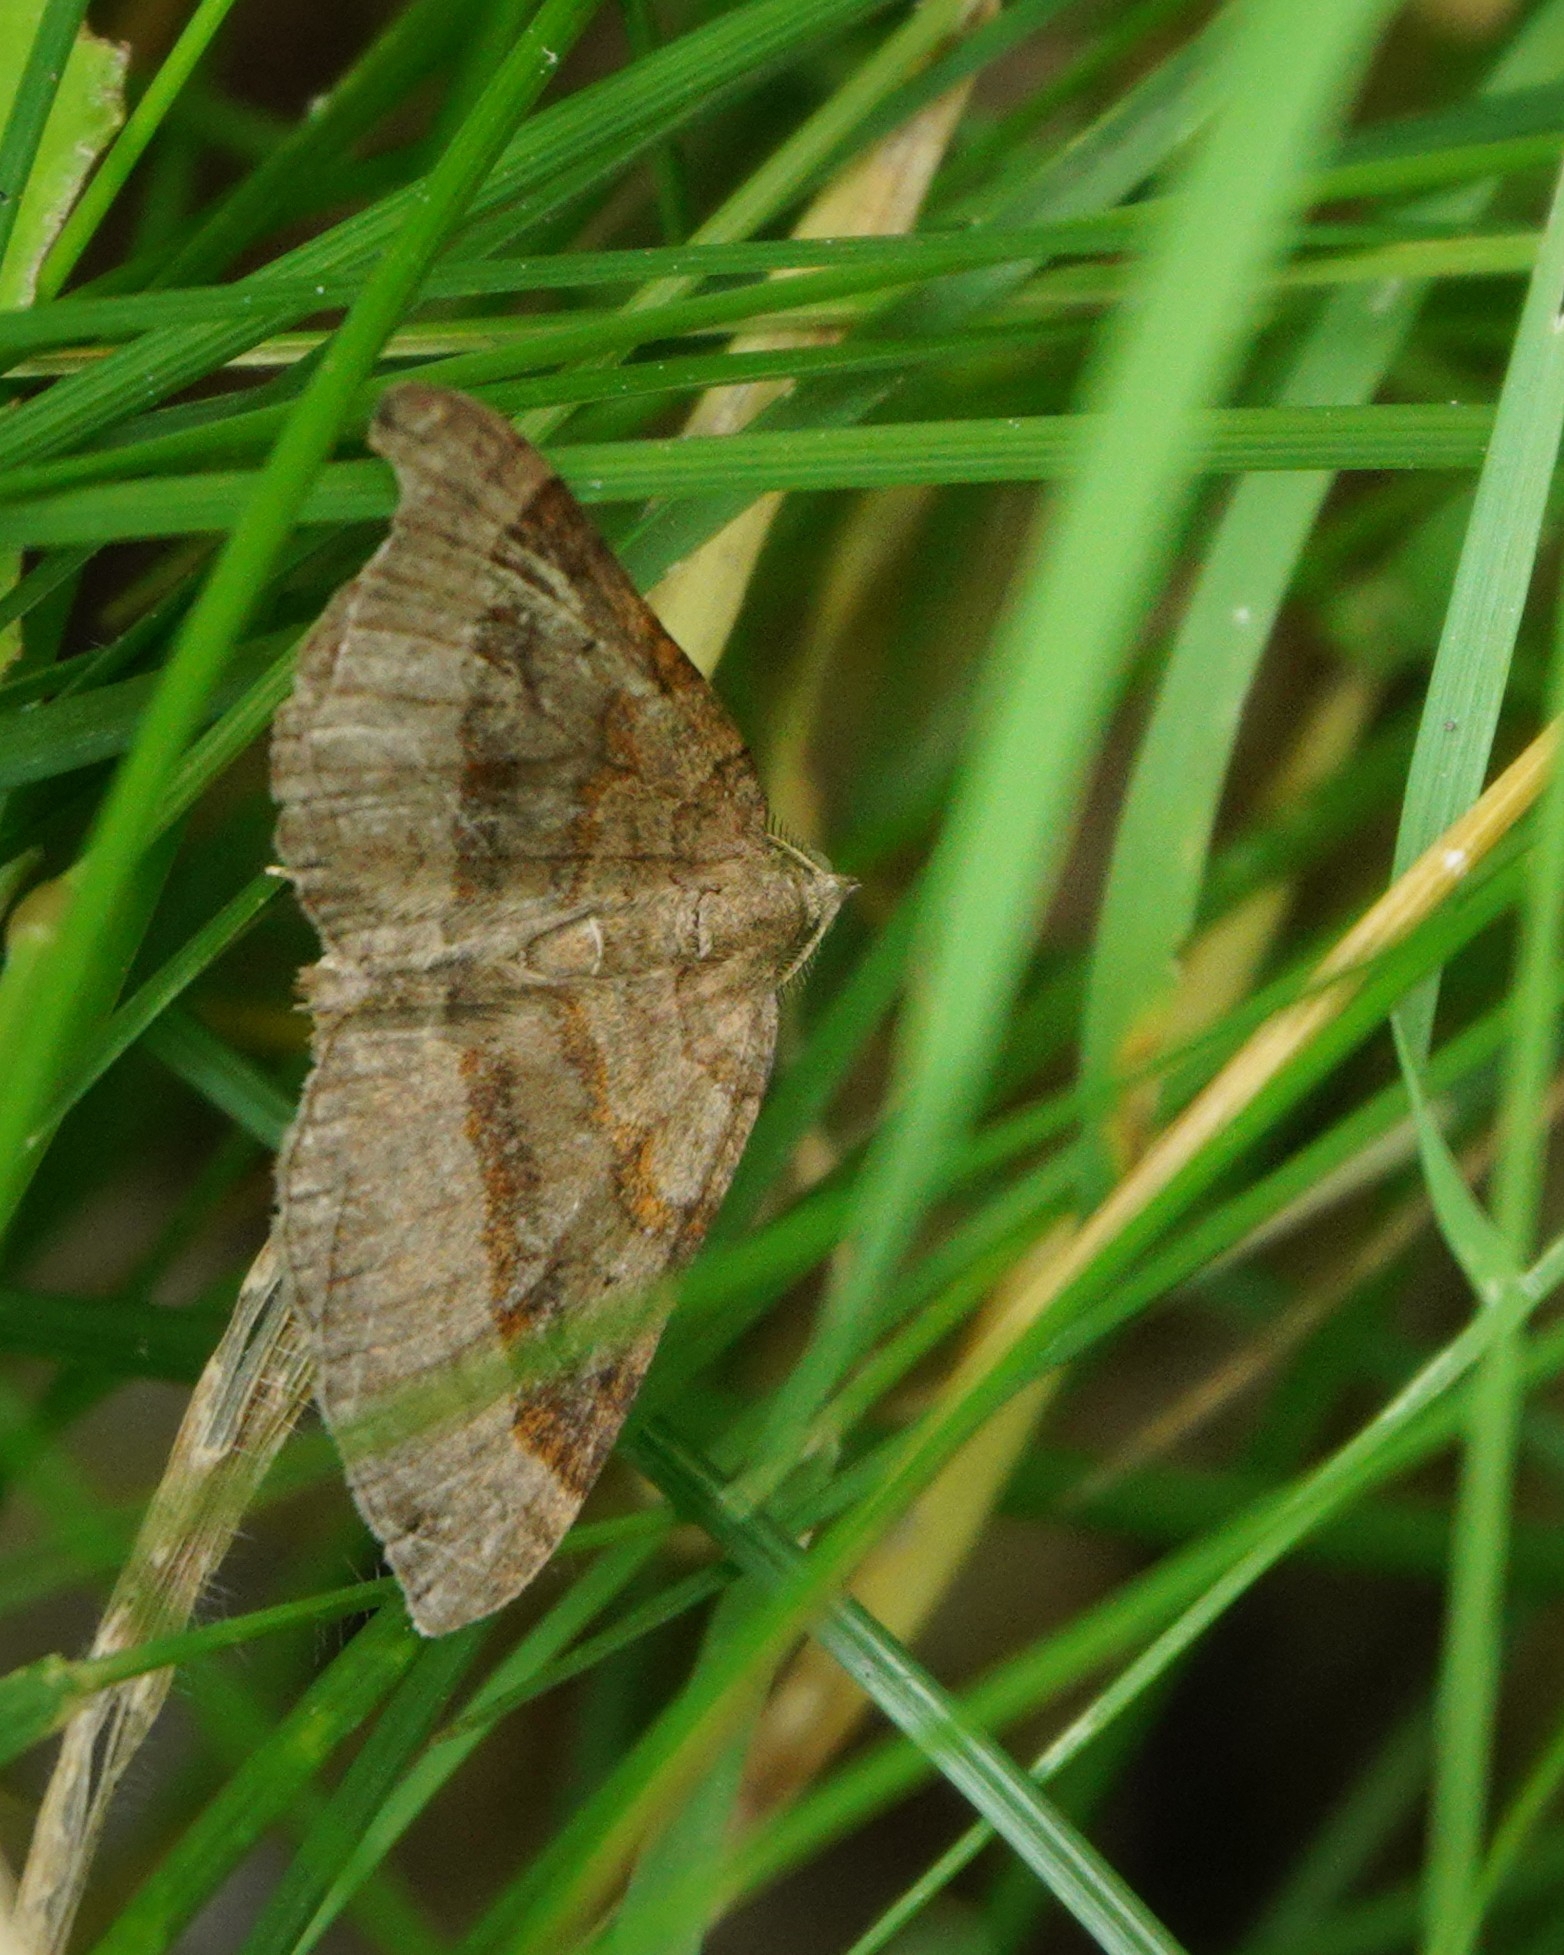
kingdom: Animalia
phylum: Arthropoda
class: Insecta
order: Lepidoptera
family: Geometridae
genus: Scotopteryx
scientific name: Scotopteryx chenopodiata
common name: Shaded broad-bar
